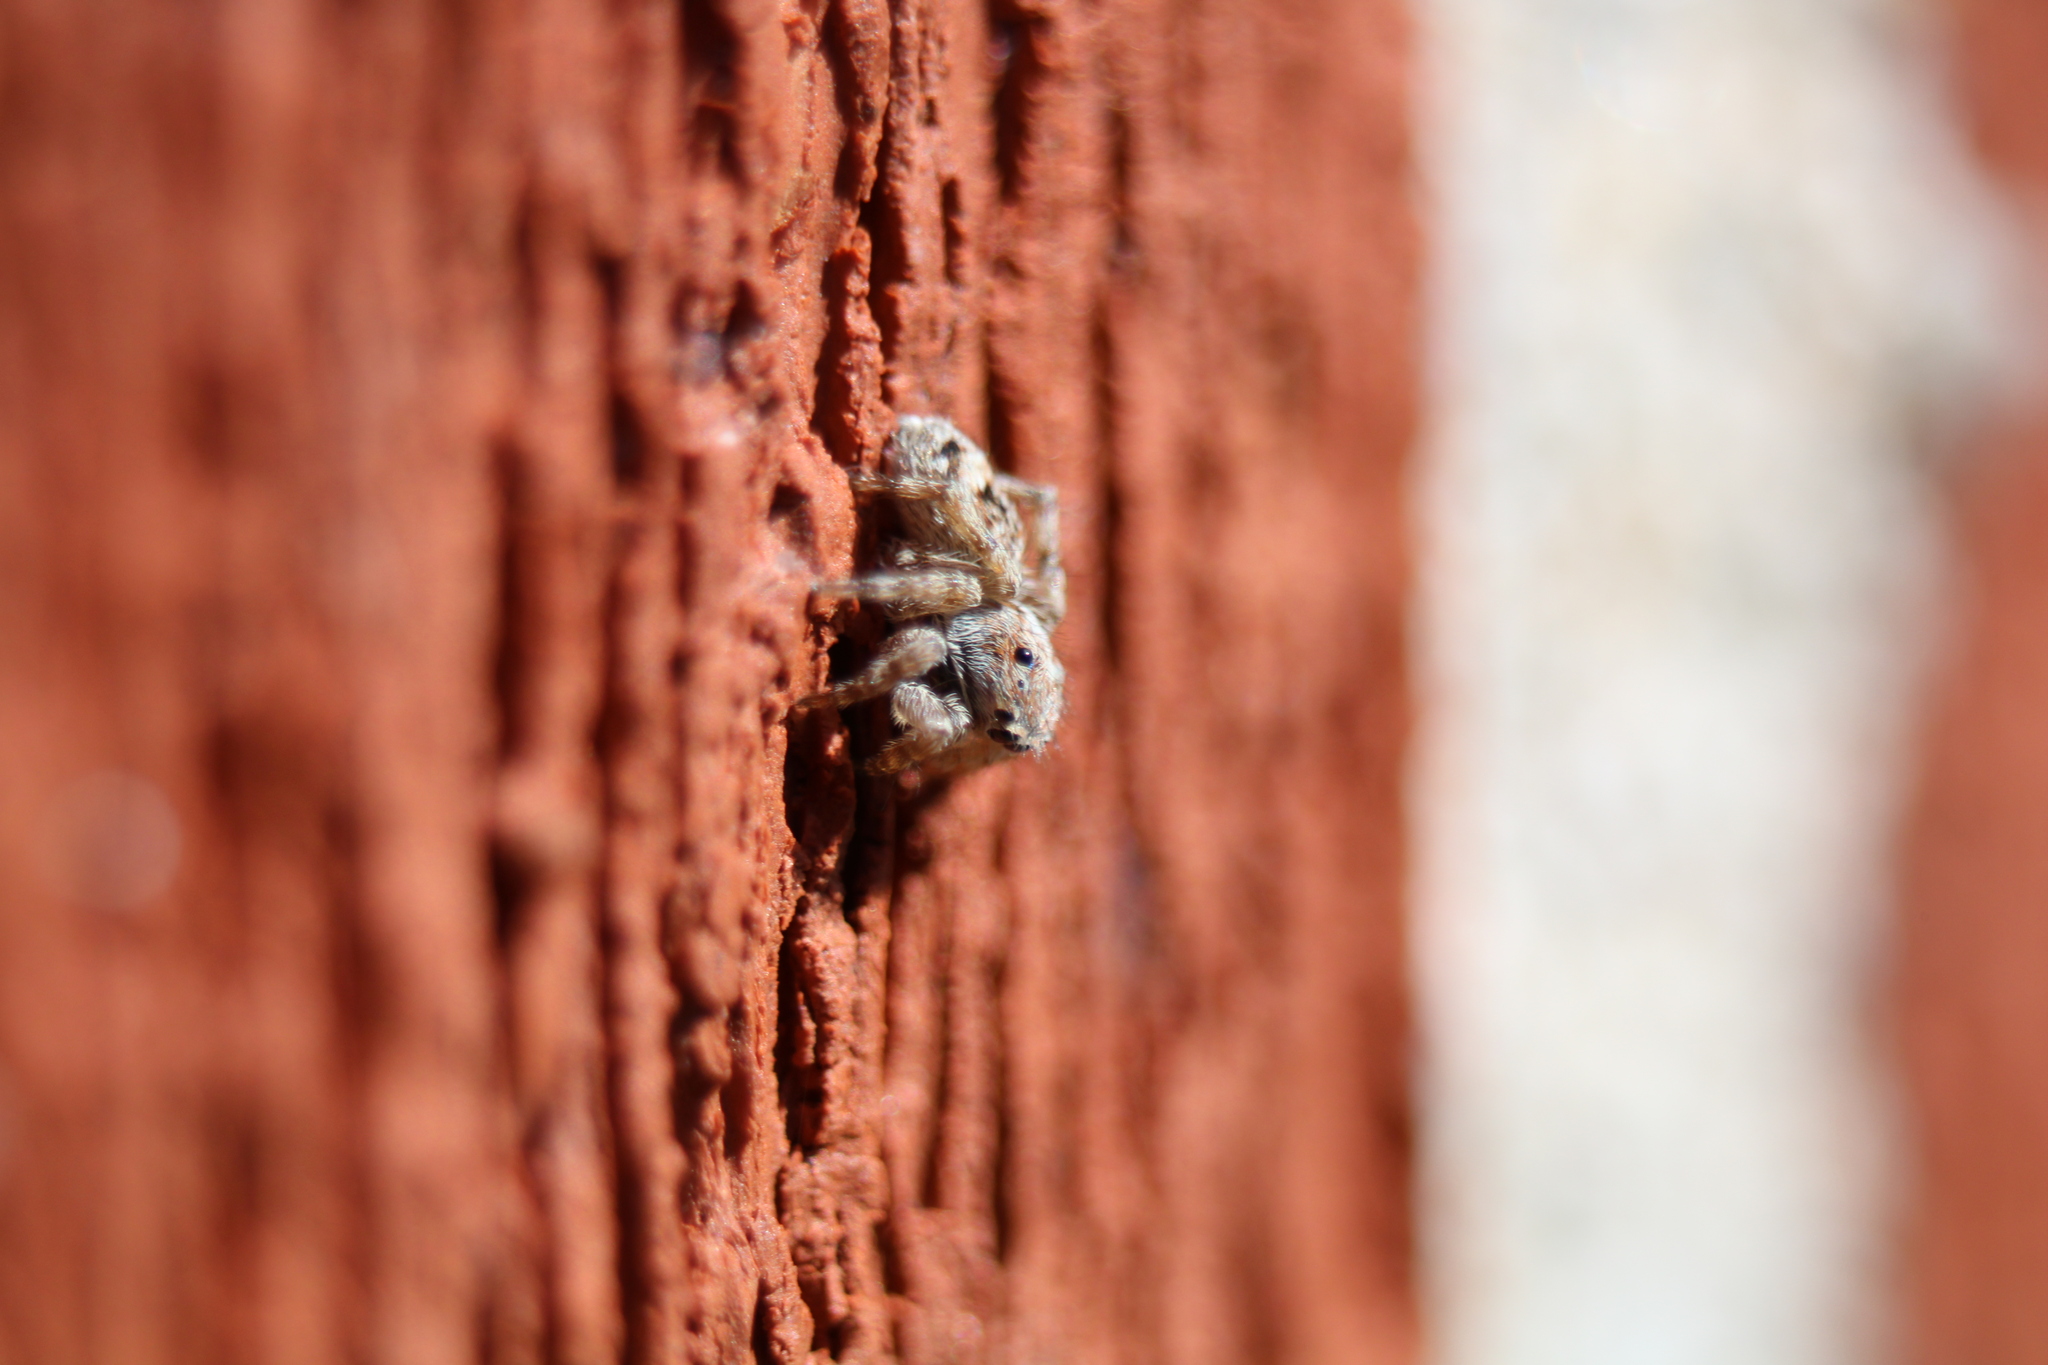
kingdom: Animalia
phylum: Arthropoda
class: Arachnida
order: Araneae
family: Salticidae
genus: Attulus
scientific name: Attulus fasciger
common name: Asiatic wall jumping spider
